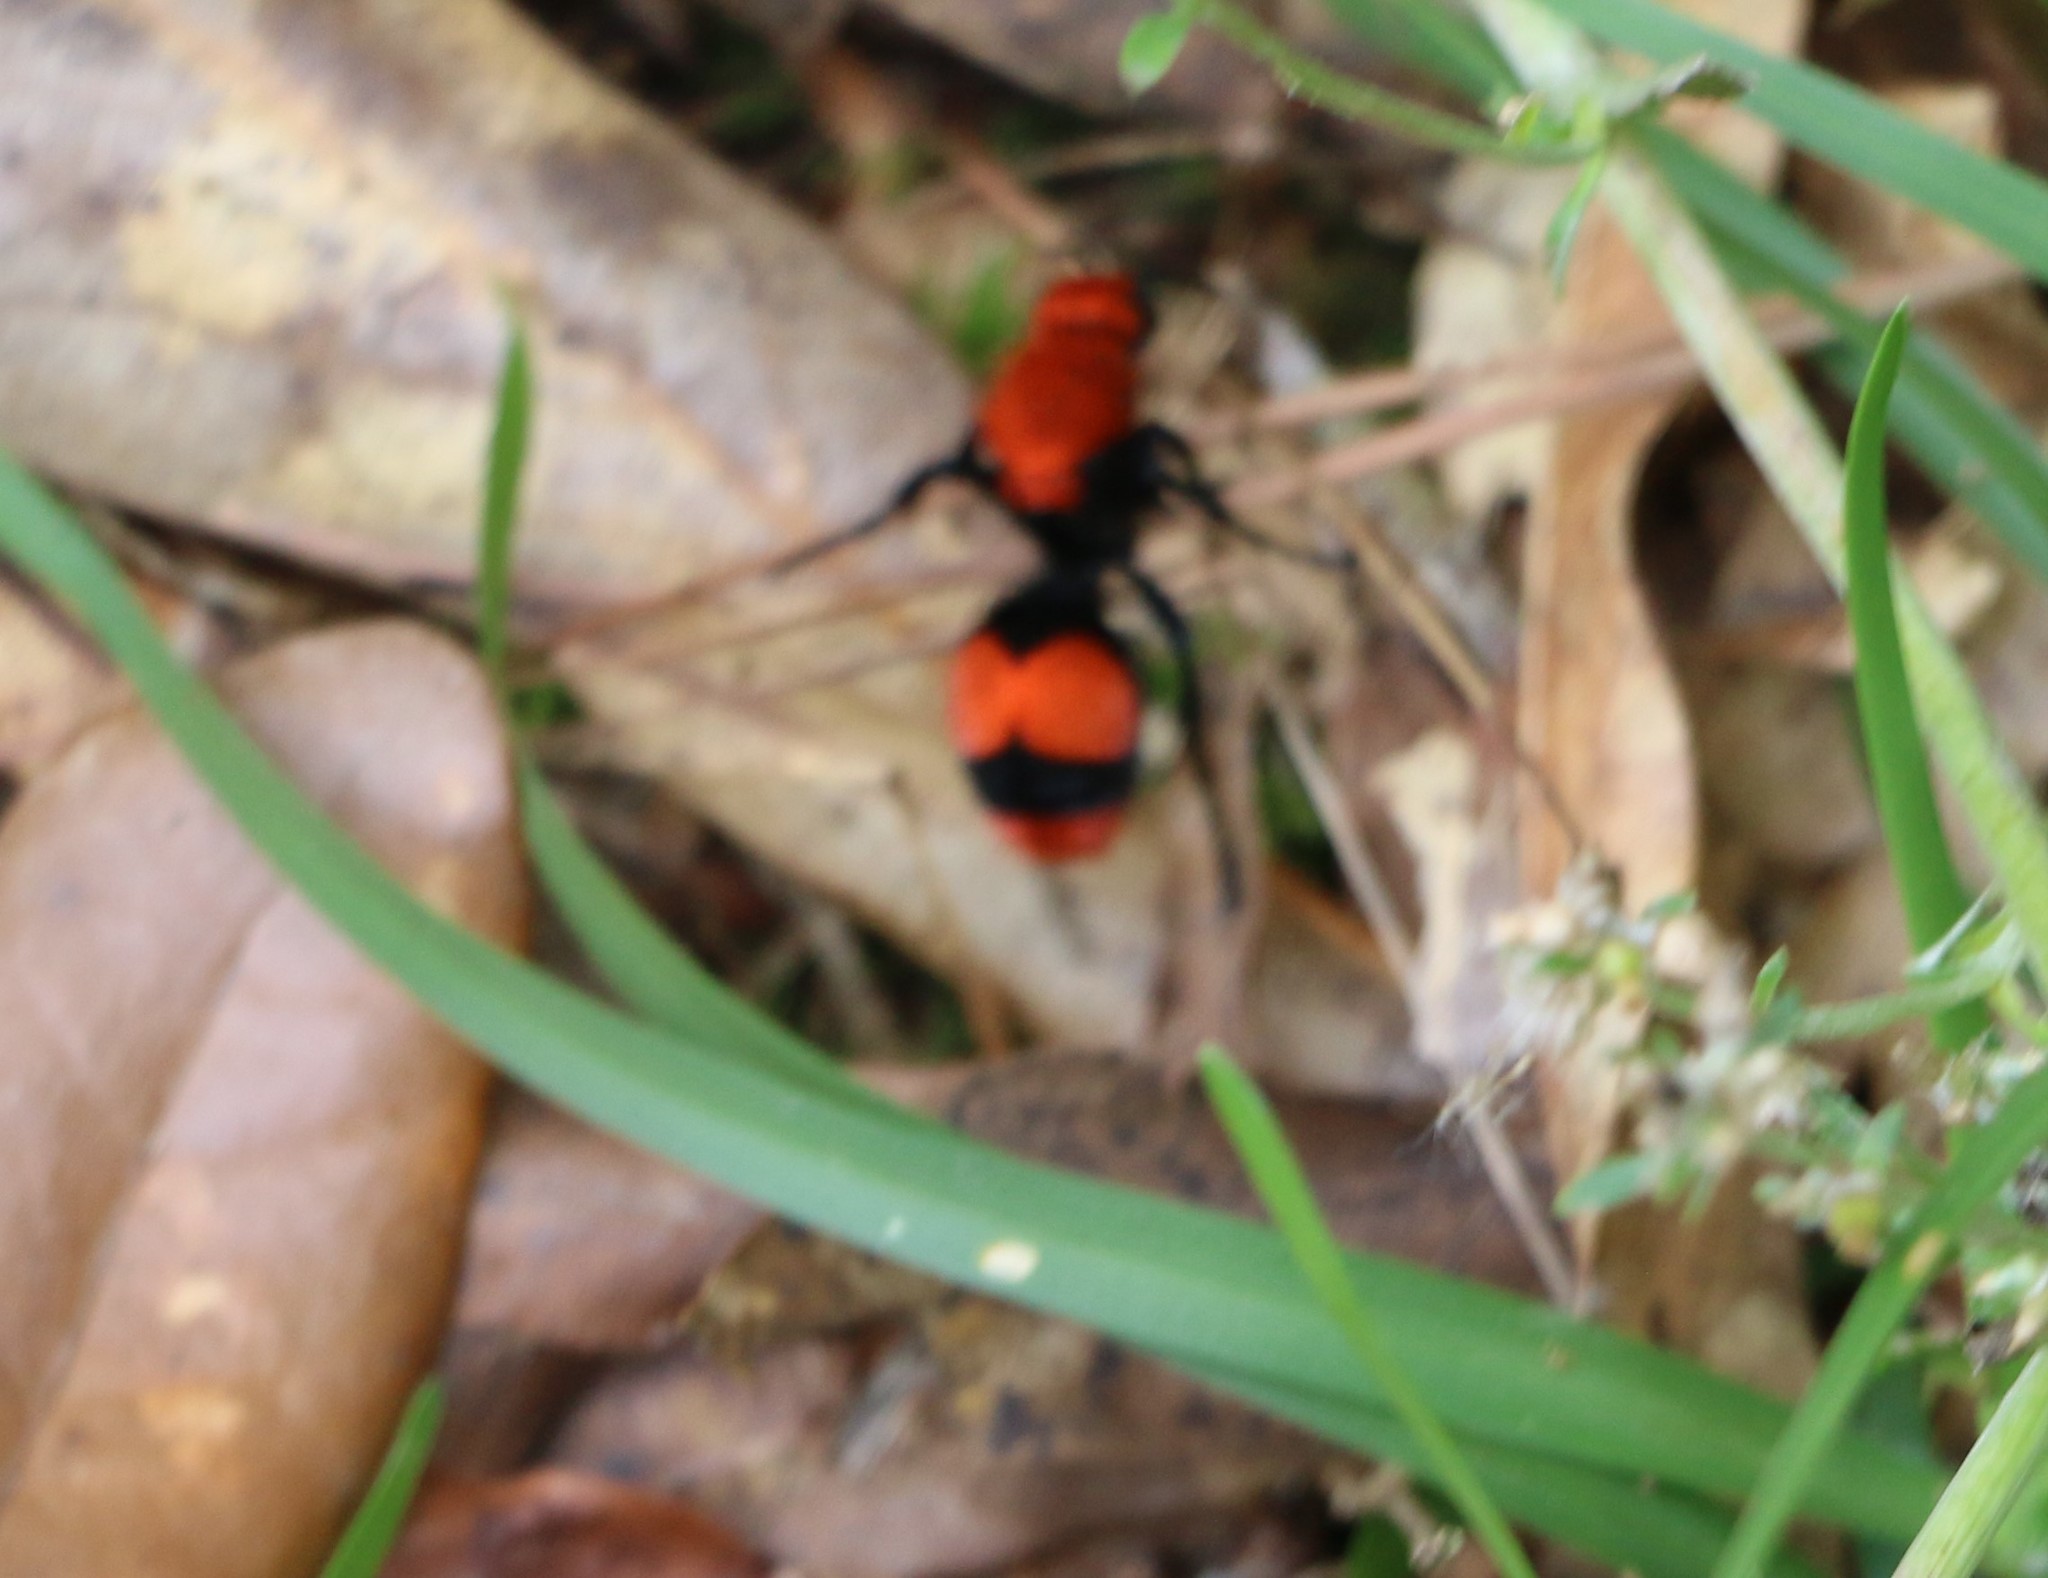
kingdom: Animalia
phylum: Arthropoda
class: Insecta
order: Hymenoptera
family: Mutillidae
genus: Dasymutilla
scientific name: Dasymutilla occidentalis
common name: Common eastern velvet ant
